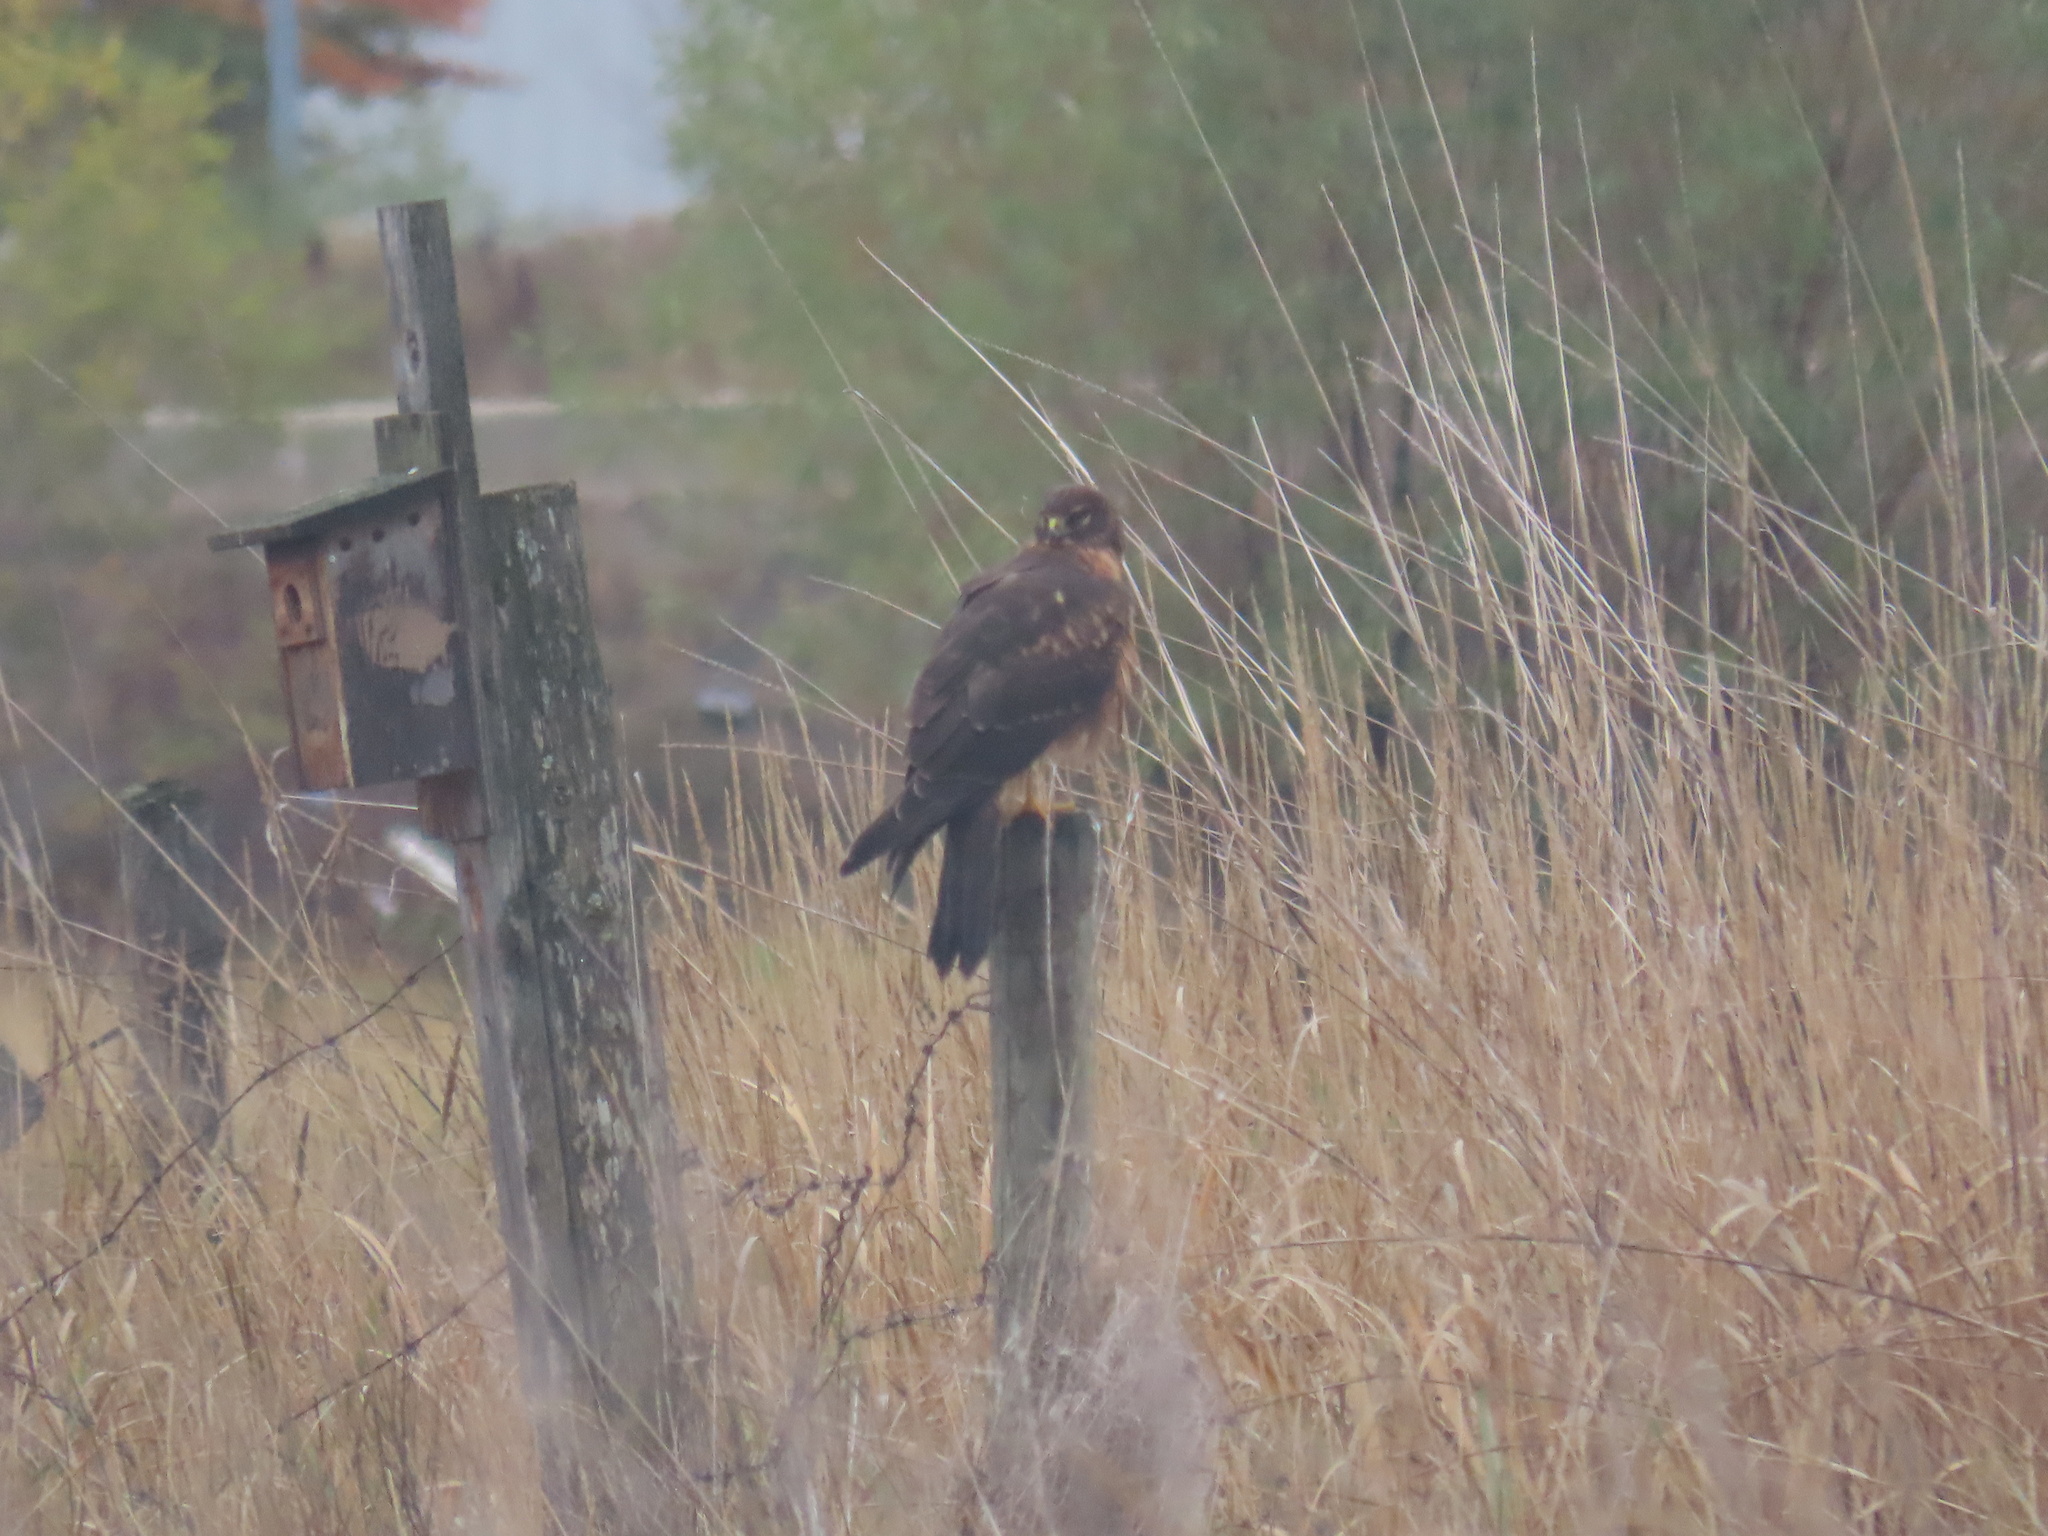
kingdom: Animalia
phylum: Chordata
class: Aves
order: Accipitriformes
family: Accipitridae
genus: Circus
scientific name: Circus cyaneus
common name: Hen harrier
